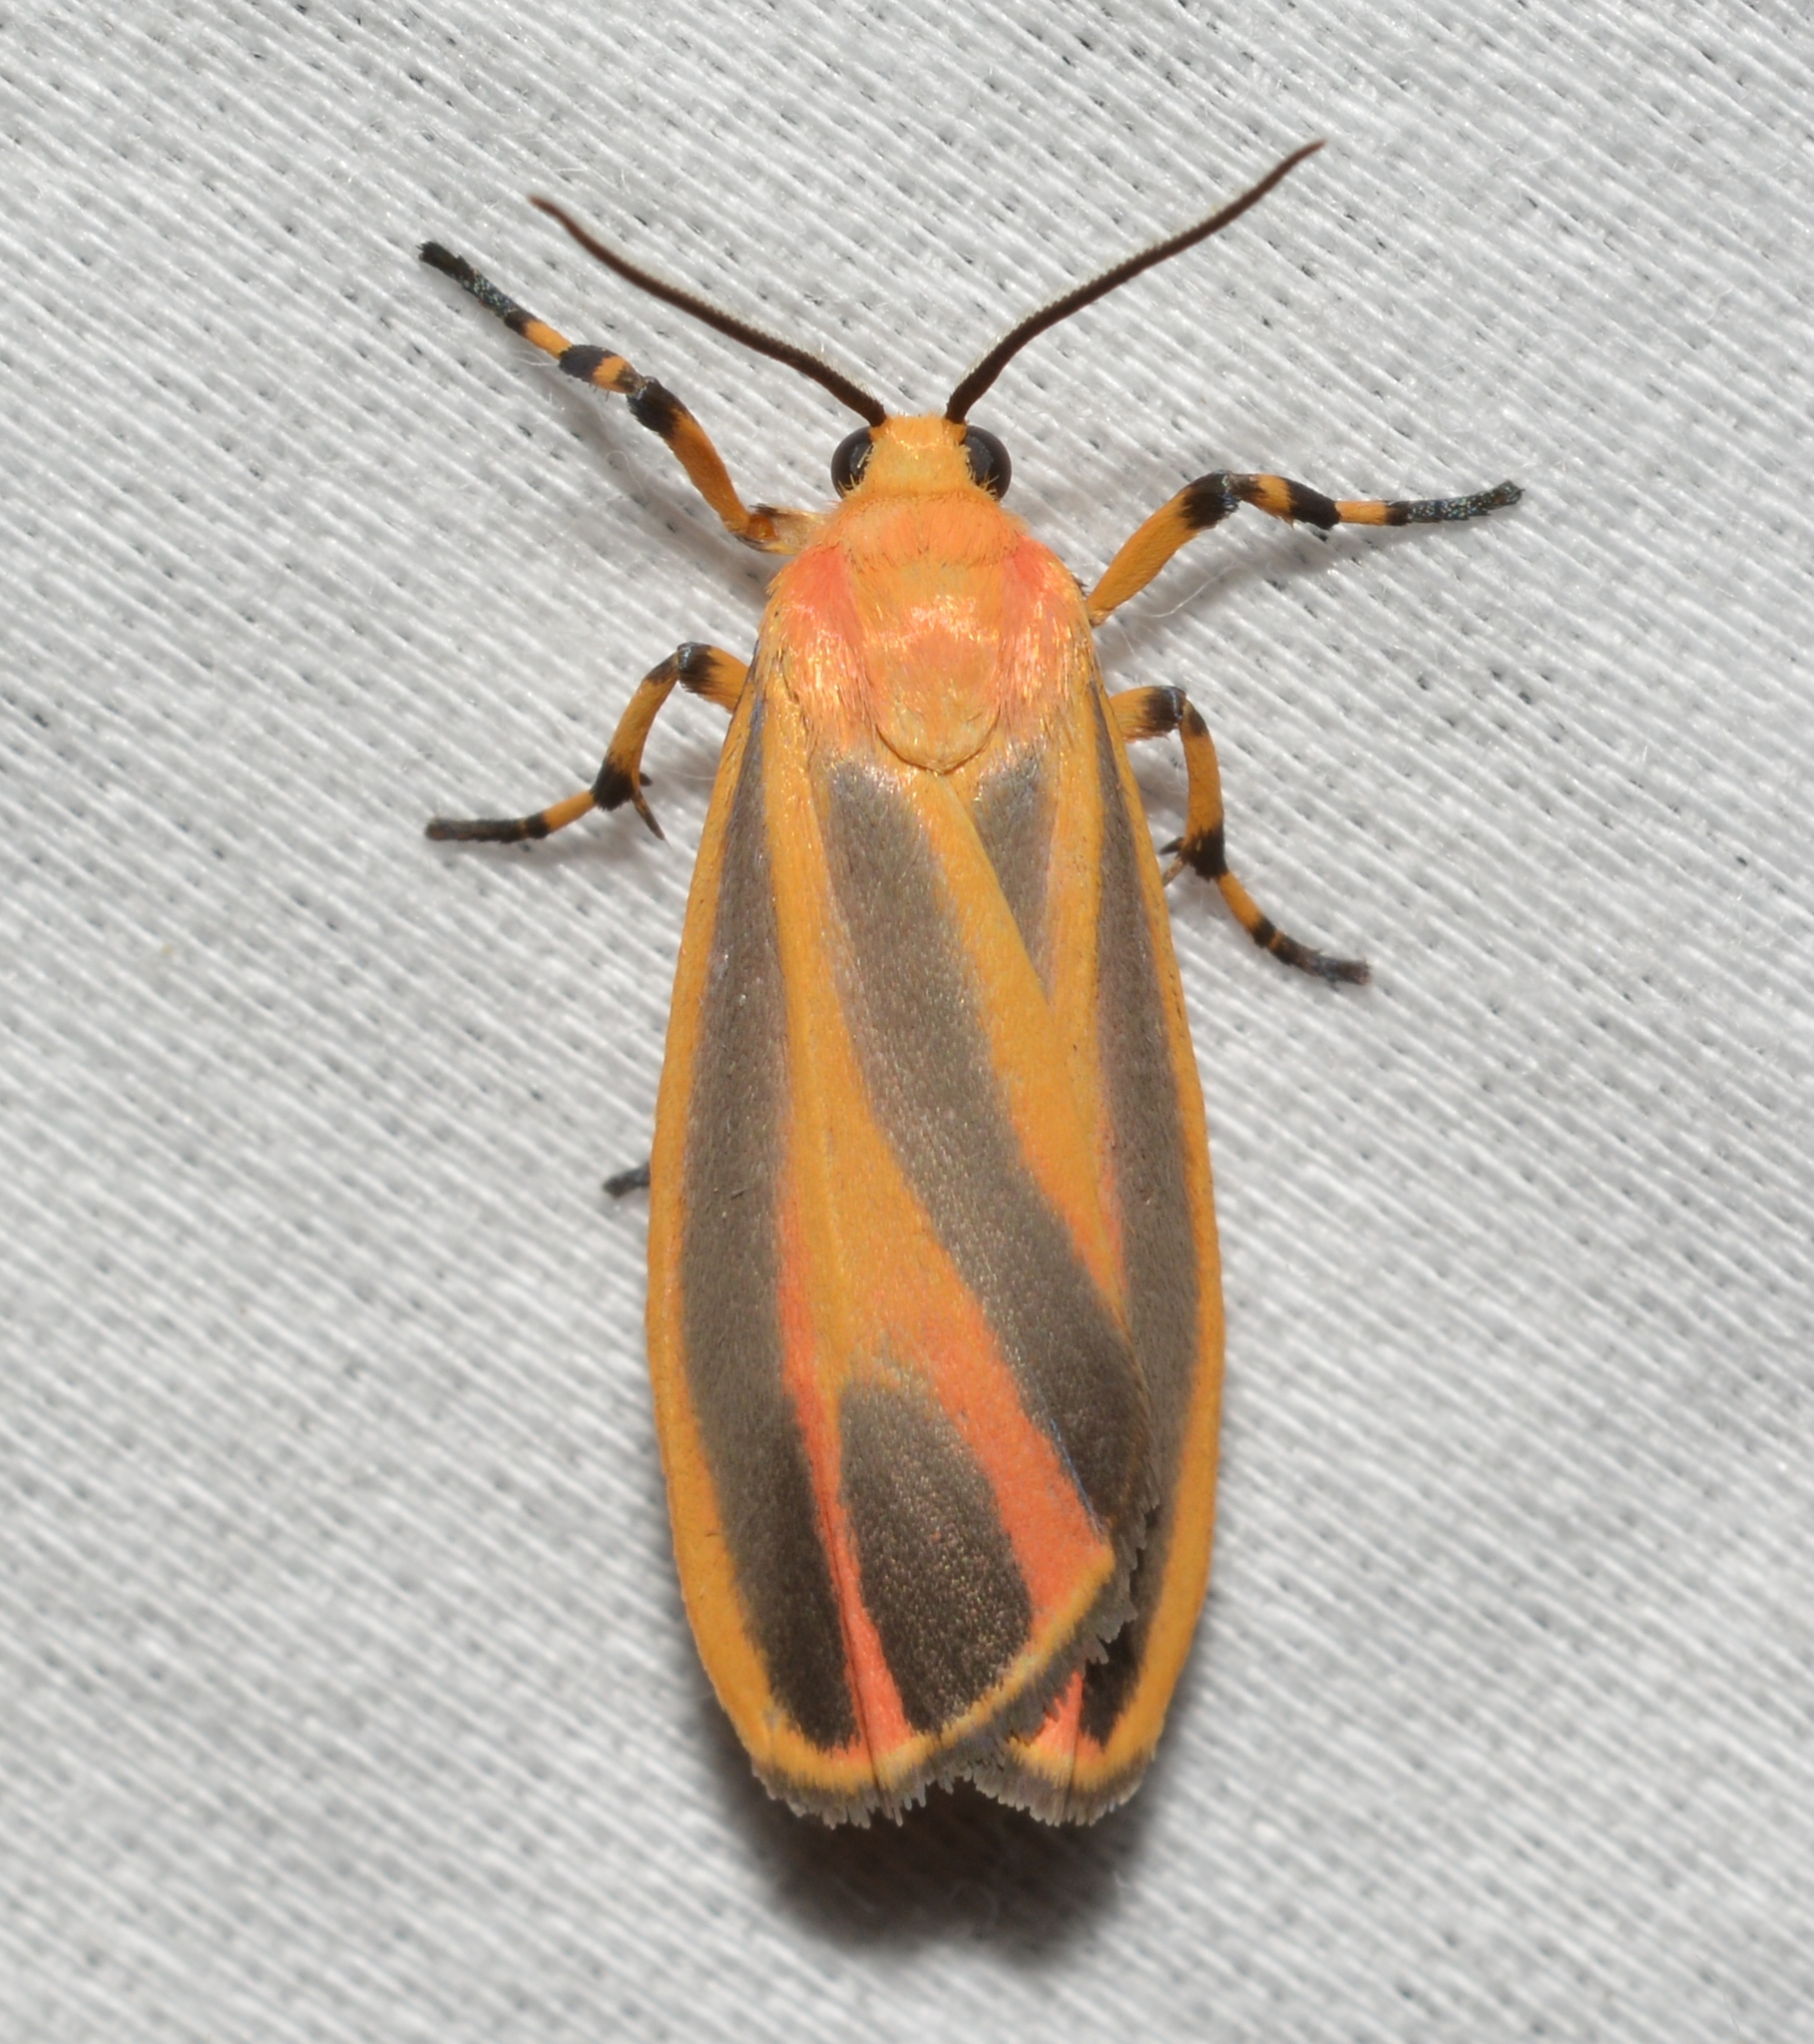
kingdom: Animalia
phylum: Arthropoda
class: Insecta
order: Lepidoptera
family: Erebidae
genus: Hypoprepia
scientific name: Hypoprepia fucosa
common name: Painted lichen moth
